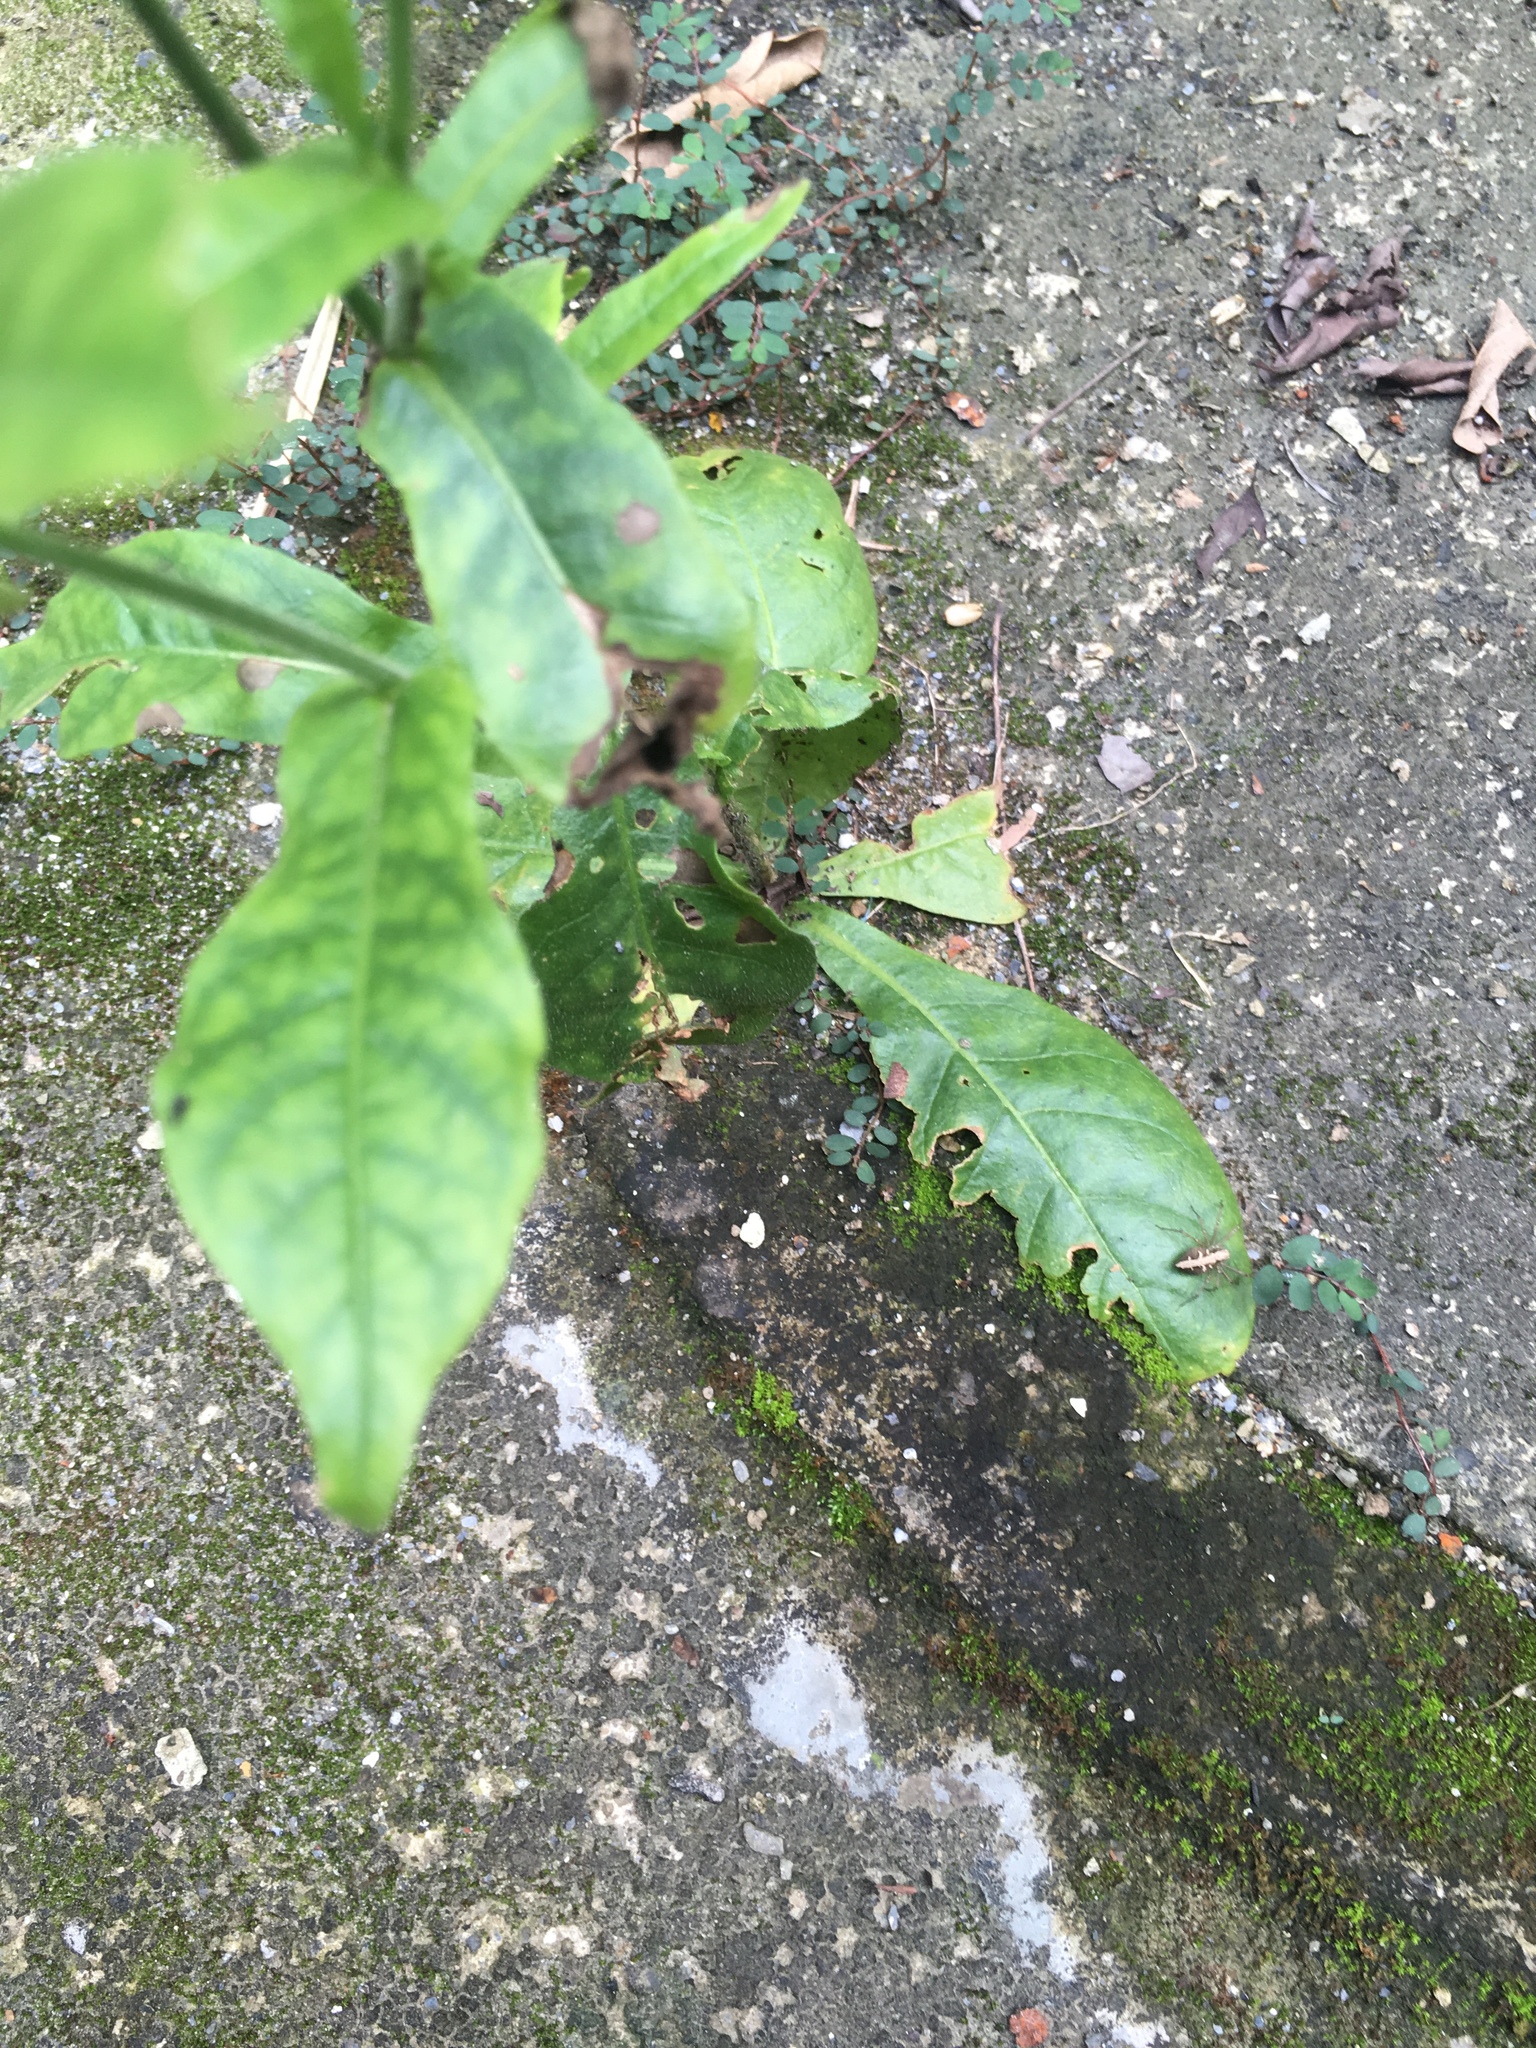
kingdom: Plantae
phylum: Tracheophyta
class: Magnoliopsida
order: Solanales
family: Solanaceae
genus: Nicotiana
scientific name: Nicotiana plumbaginifolia
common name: Tex-mex tobacco
